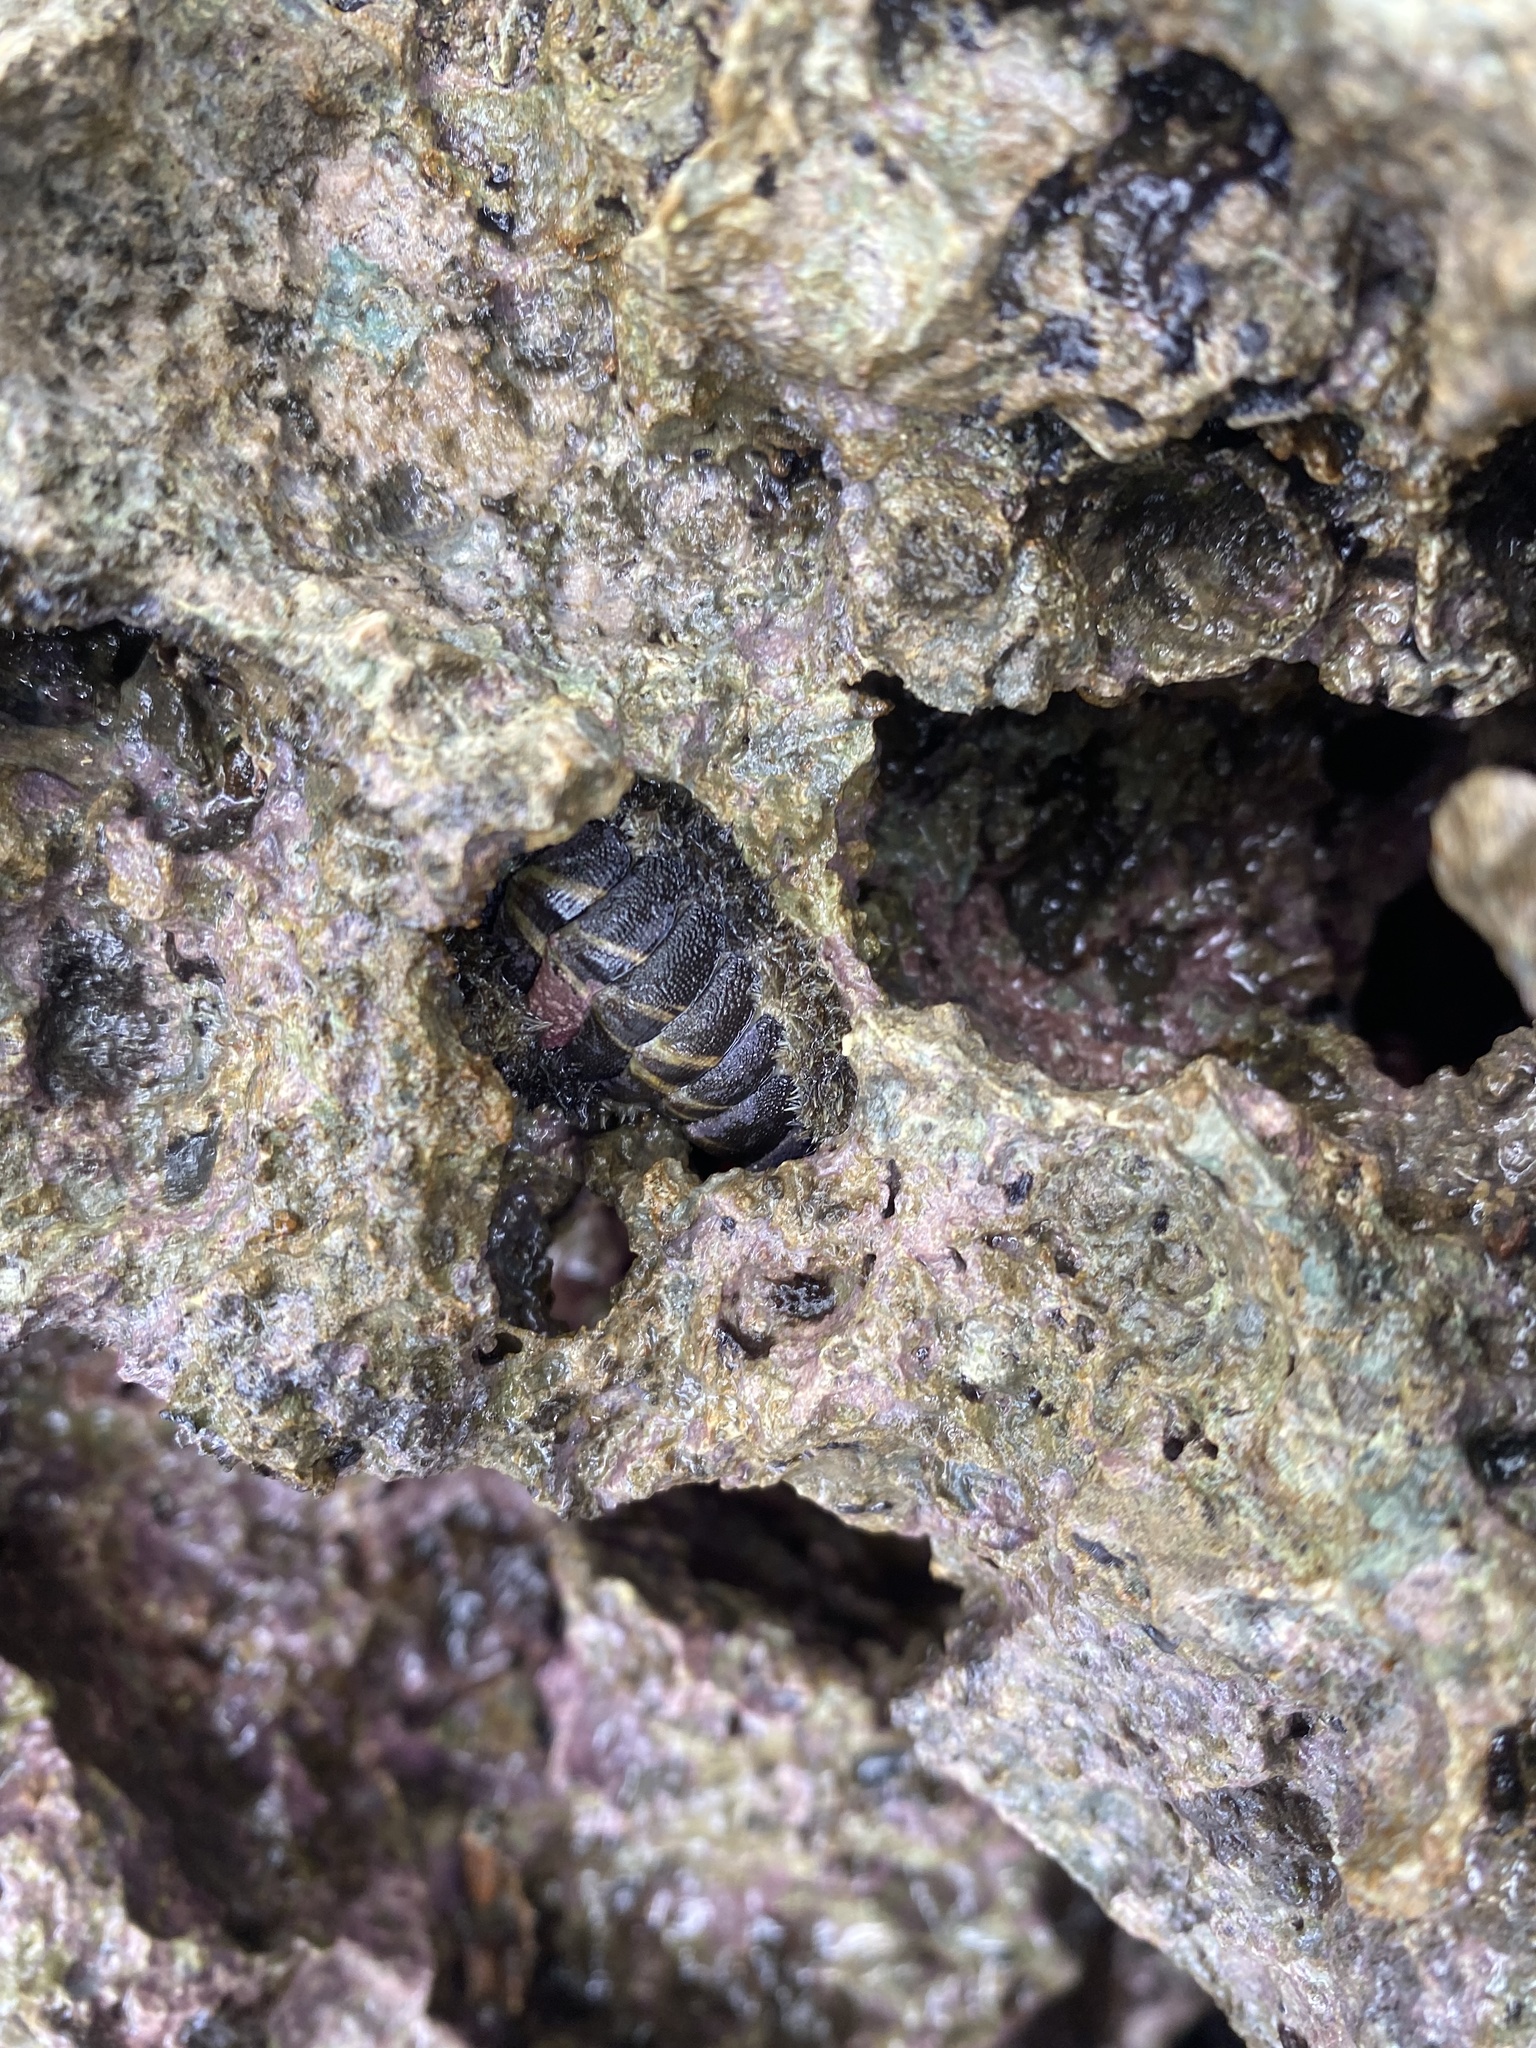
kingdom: Animalia
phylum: Mollusca
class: Polyplacophora
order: Chitonida
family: Chitonidae
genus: Acanthopleura
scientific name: Acanthopleura granulata
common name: West indian fuzzy chiton
